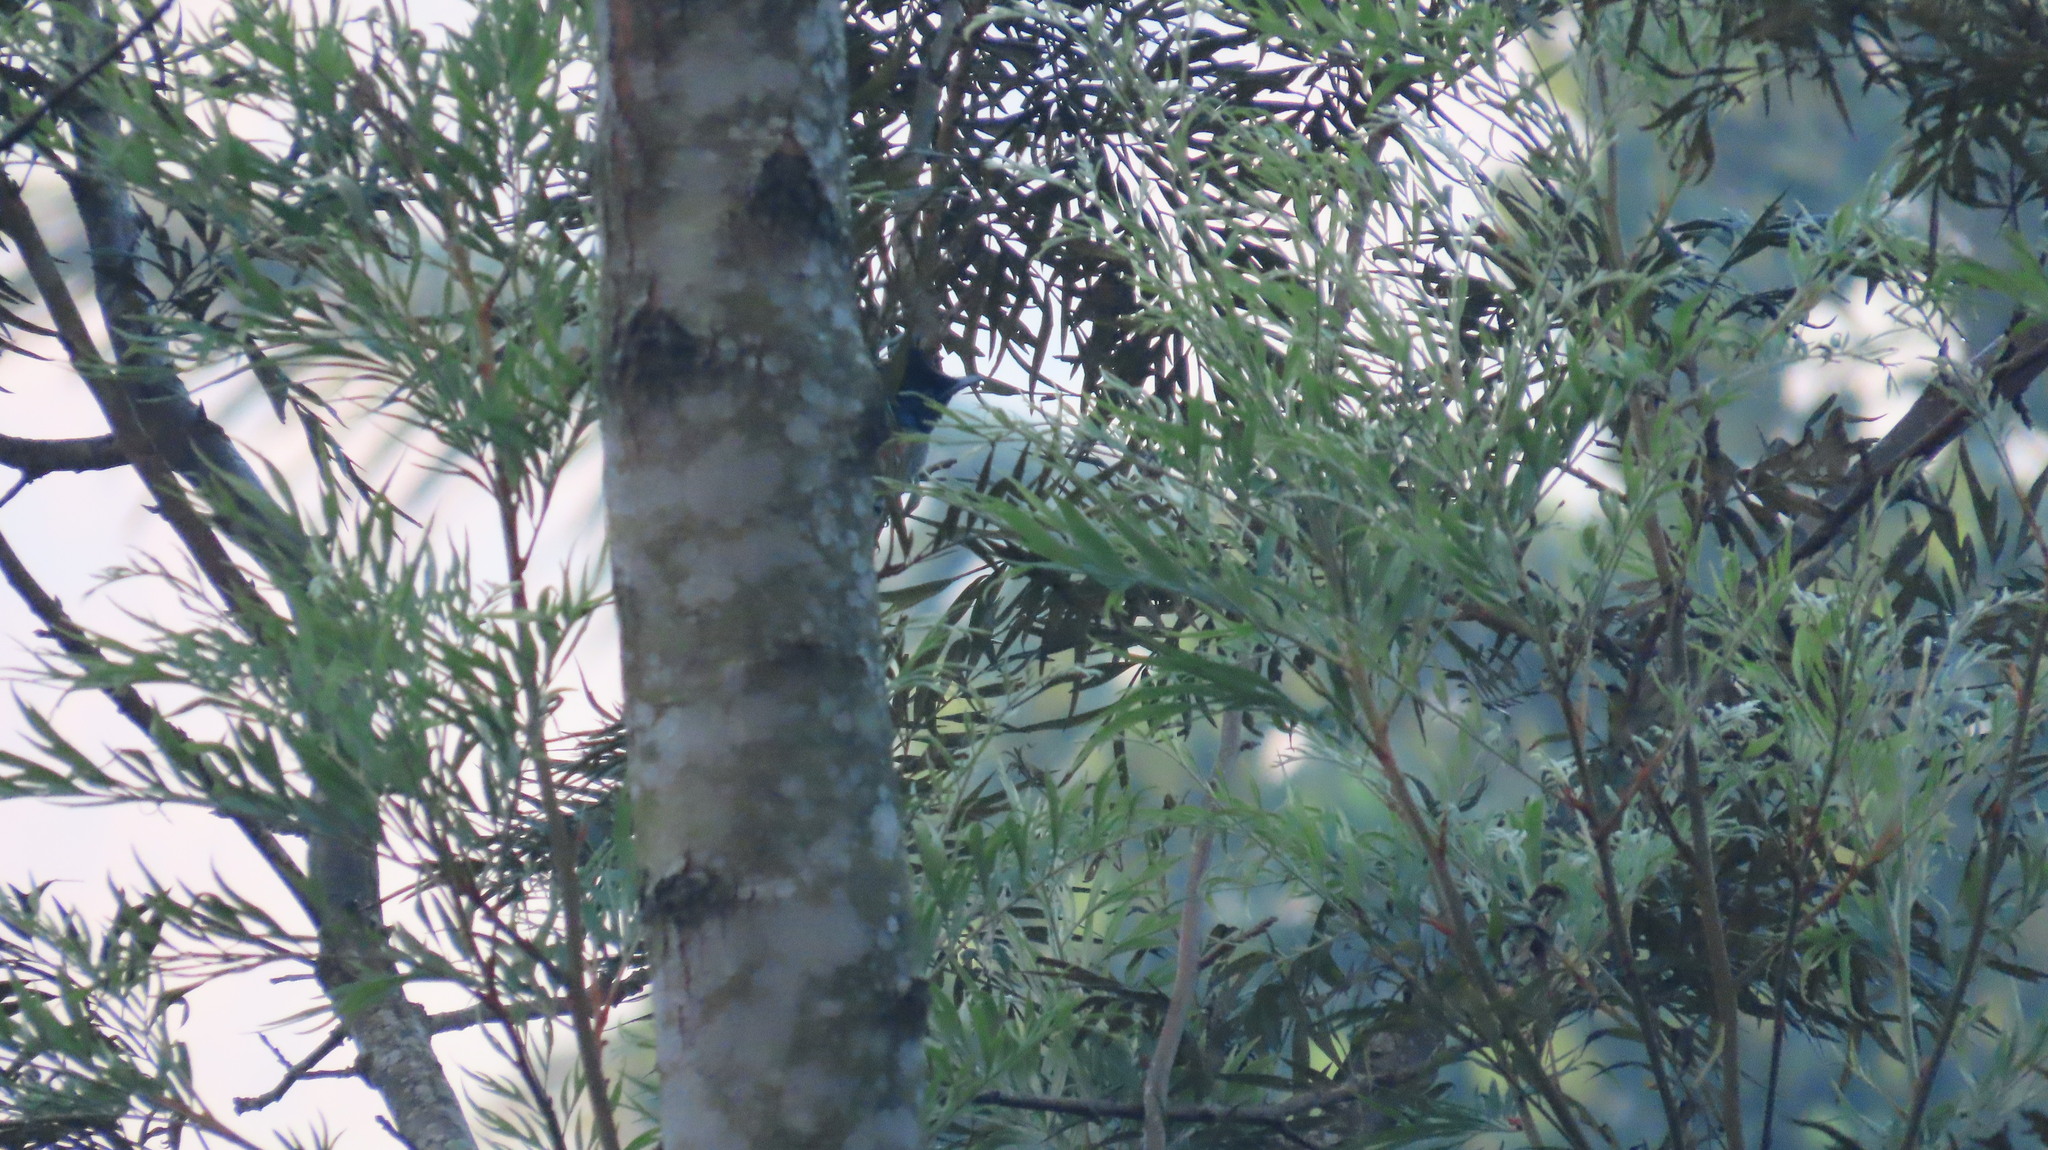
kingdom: Animalia
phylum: Chordata
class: Aves
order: Passeriformes
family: Monarchidae
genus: Terpsiphone
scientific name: Terpsiphone paradisi
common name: Indian paradise flycatcher
